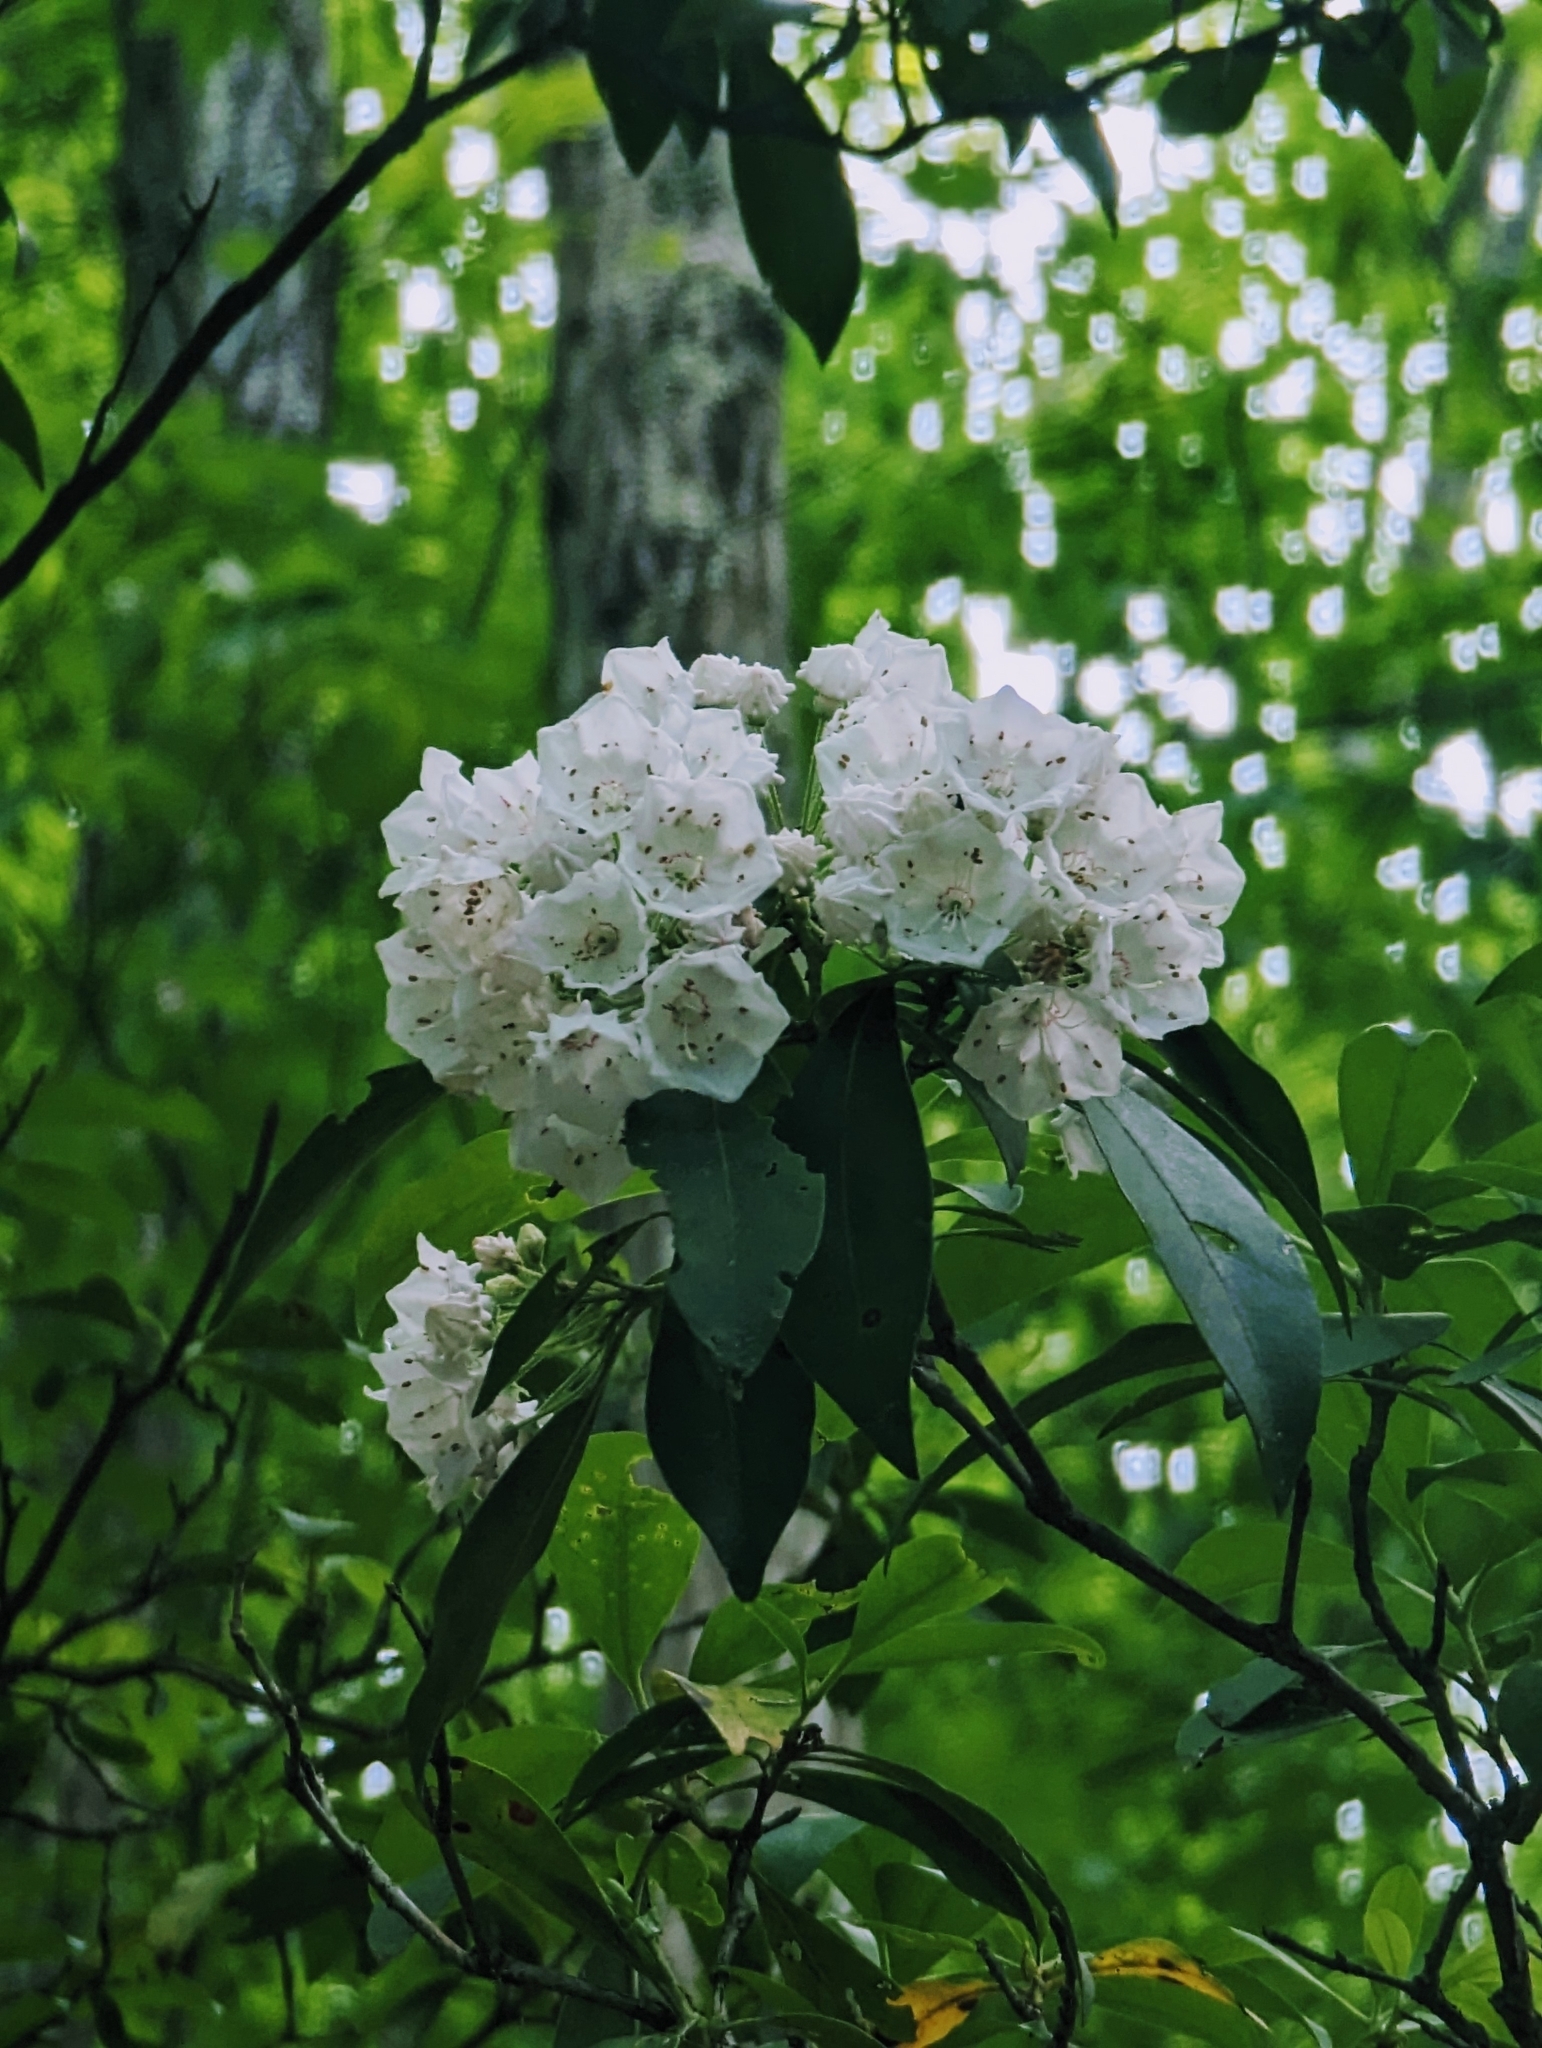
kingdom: Plantae
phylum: Tracheophyta
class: Magnoliopsida
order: Ericales
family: Ericaceae
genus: Kalmia
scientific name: Kalmia latifolia
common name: Mountain-laurel
